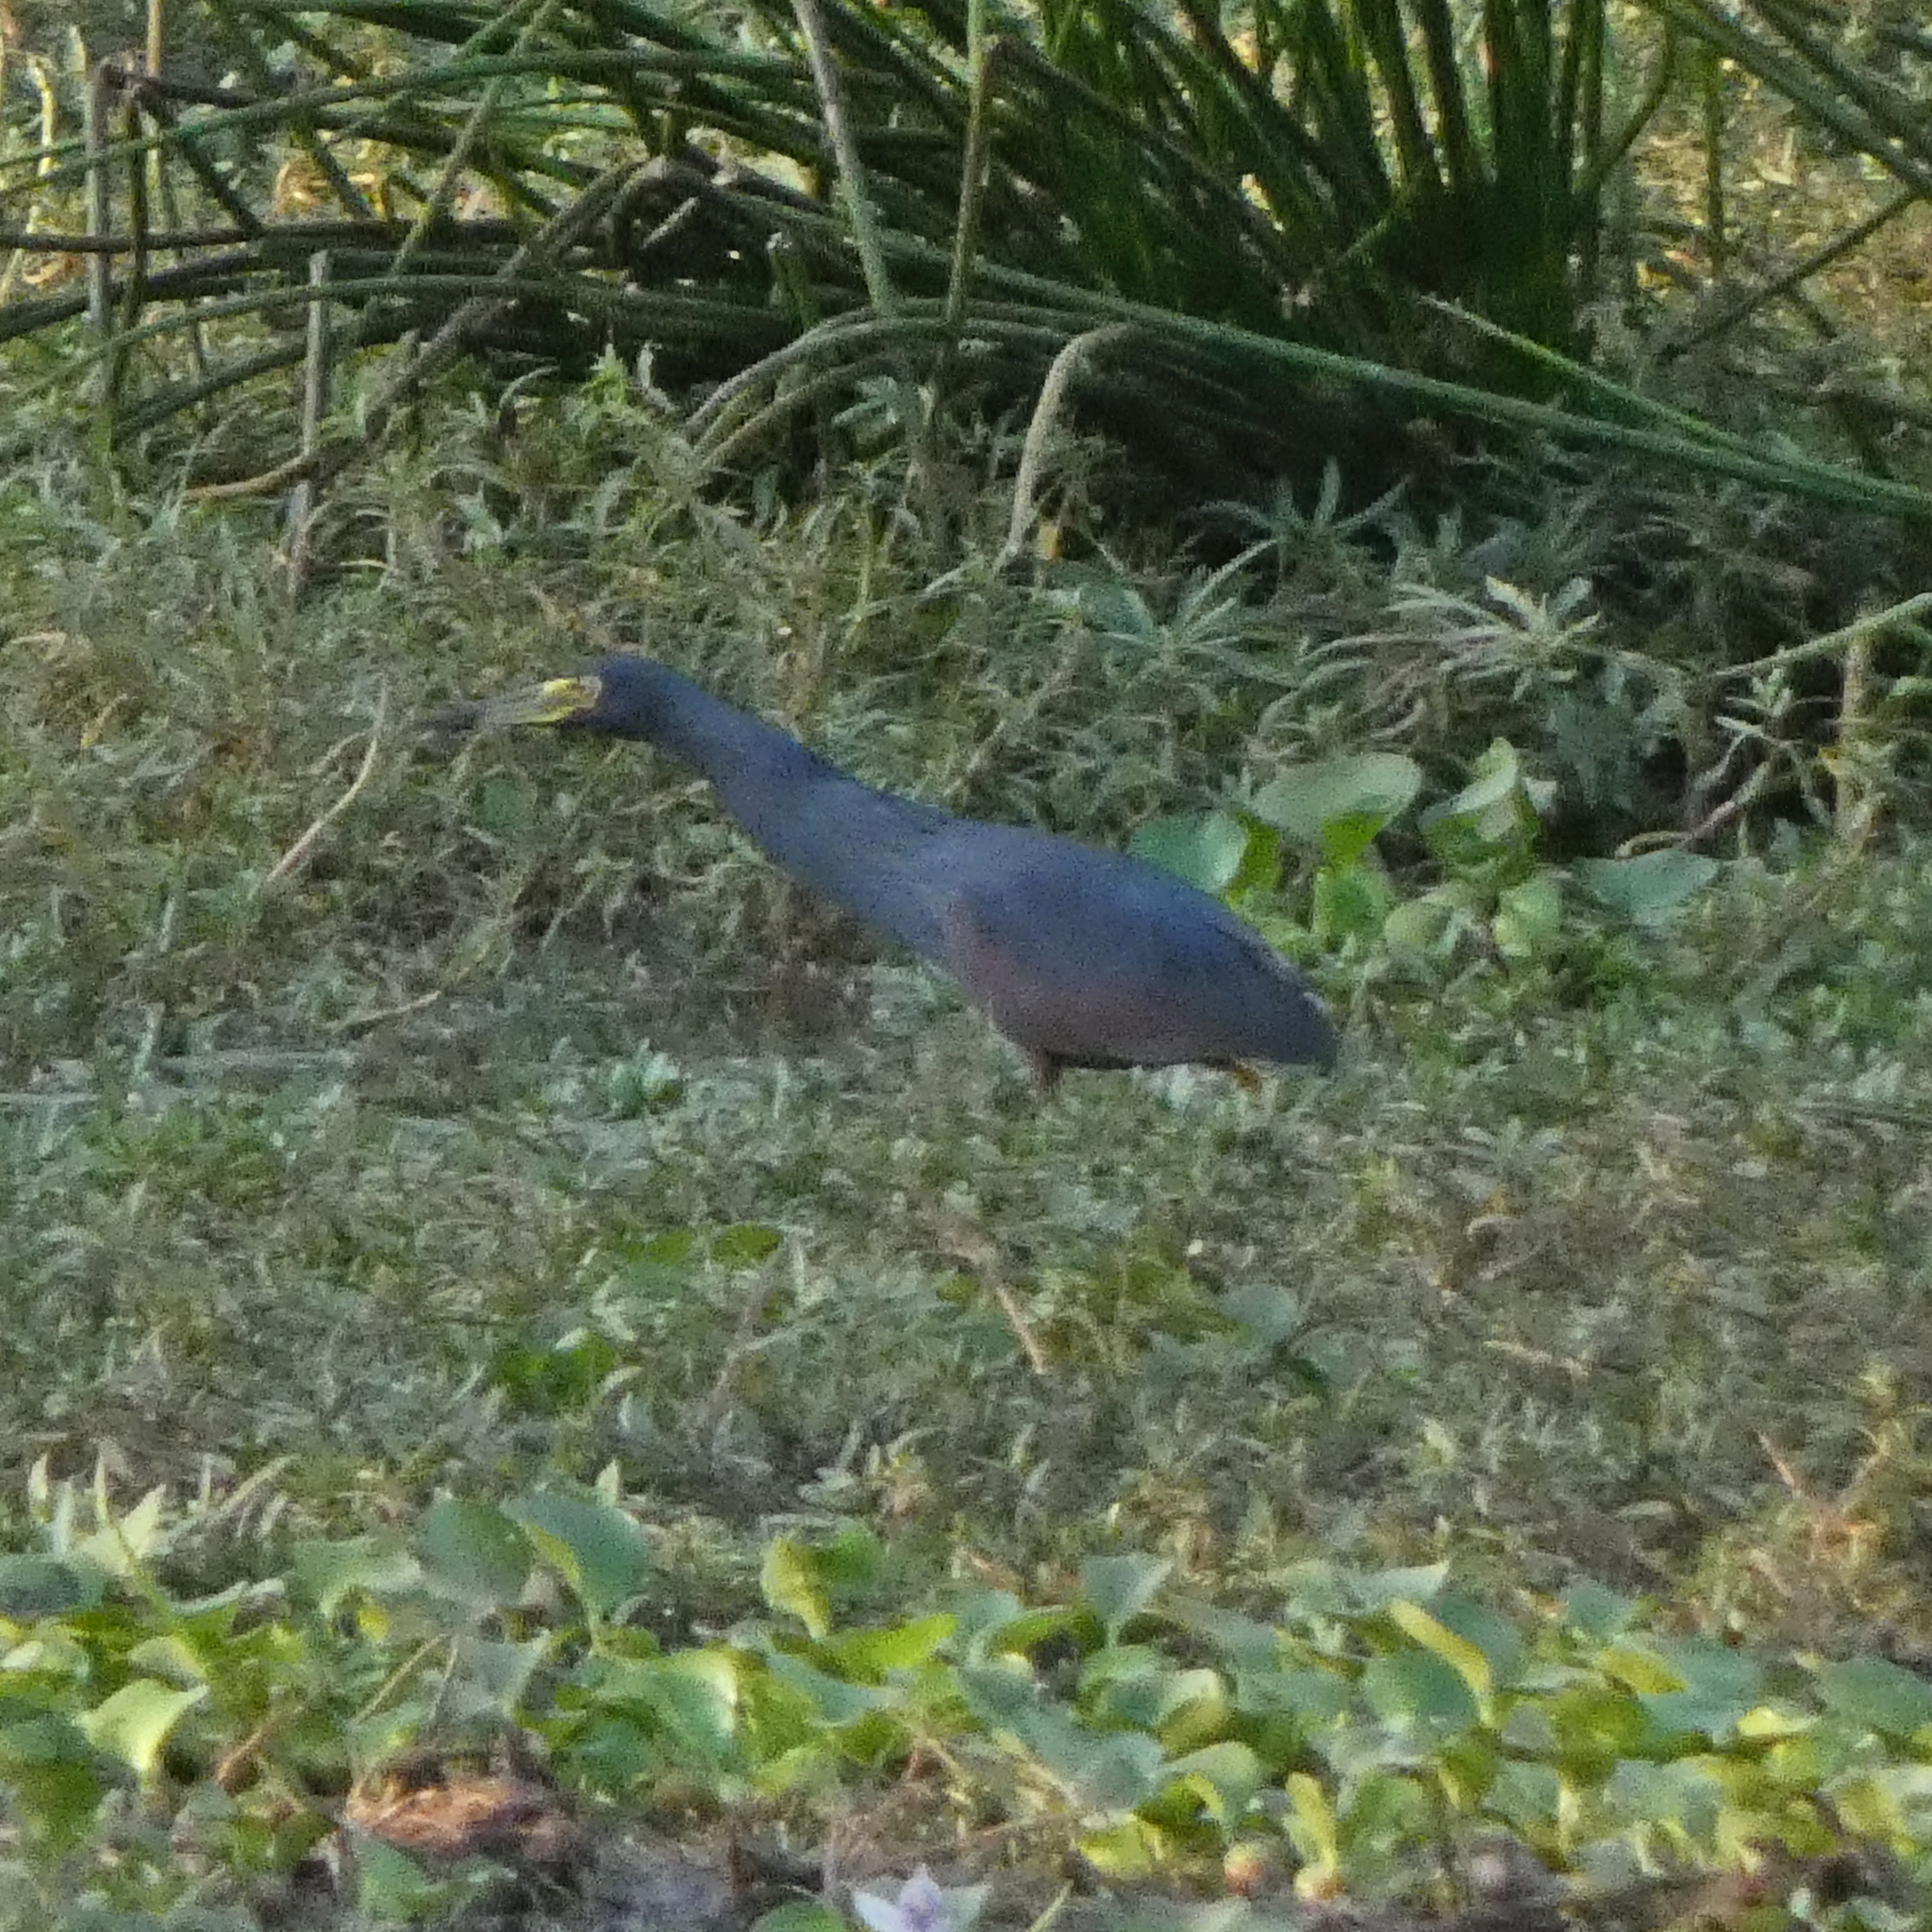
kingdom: Animalia
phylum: Chordata
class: Aves
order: Pelecaniformes
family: Ardeidae
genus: Ardeola
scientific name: Ardeola rufiventris
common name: Rufous-bellied heron
